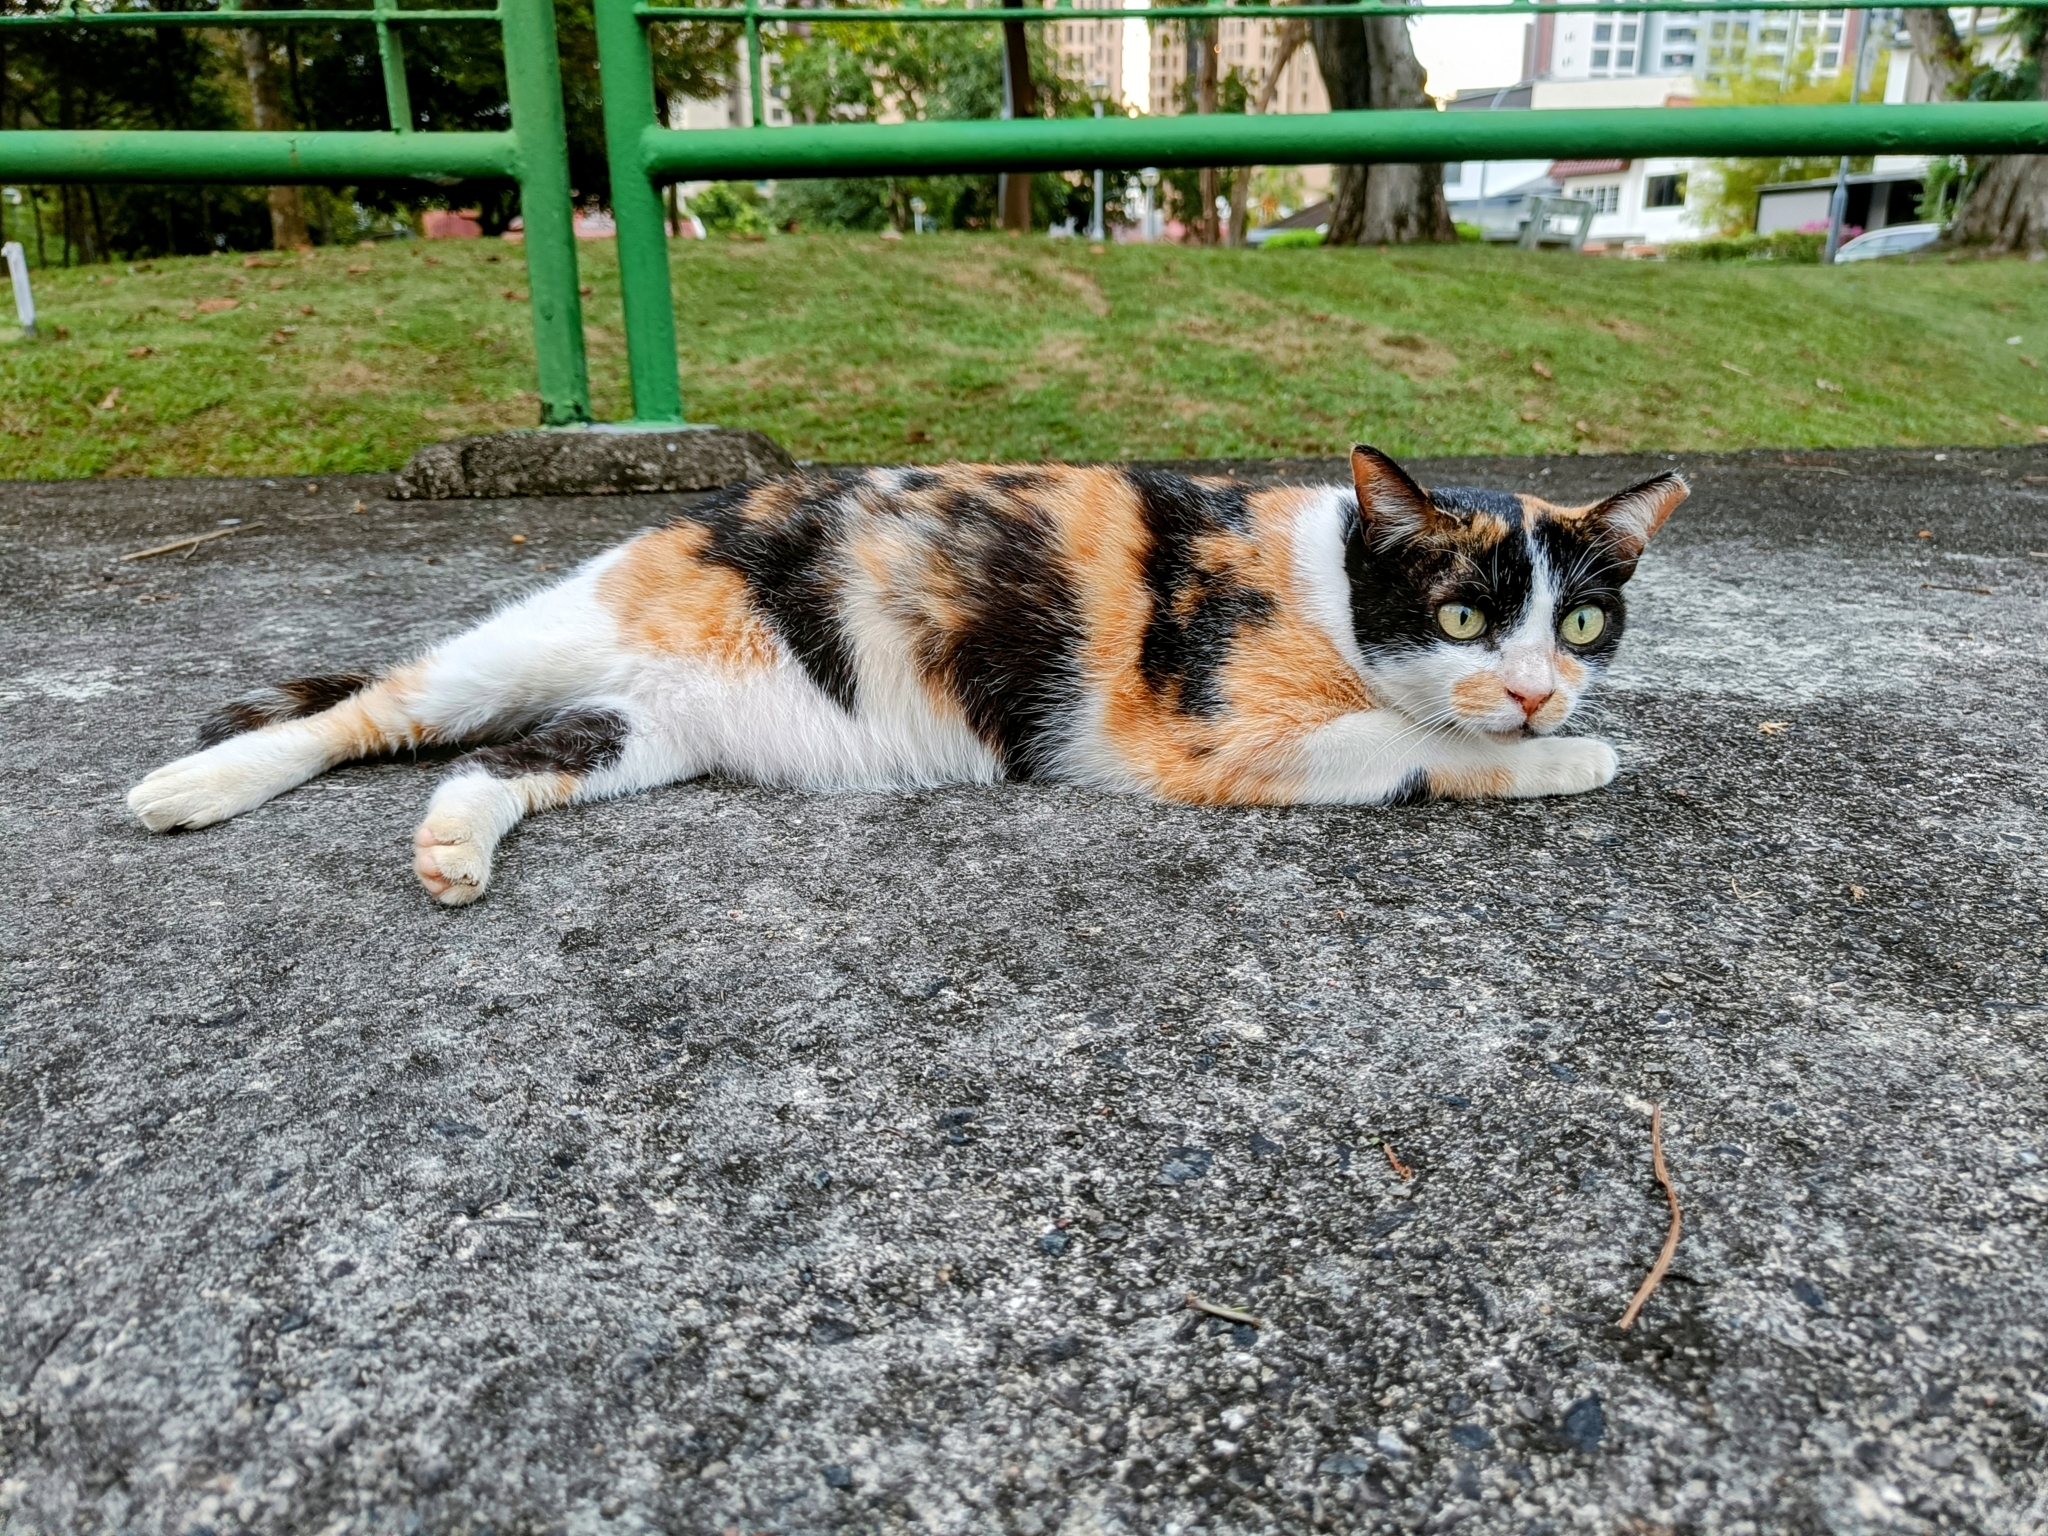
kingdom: Animalia
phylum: Chordata
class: Mammalia
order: Carnivora
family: Felidae
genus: Felis
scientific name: Felis catus
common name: Domestic cat
